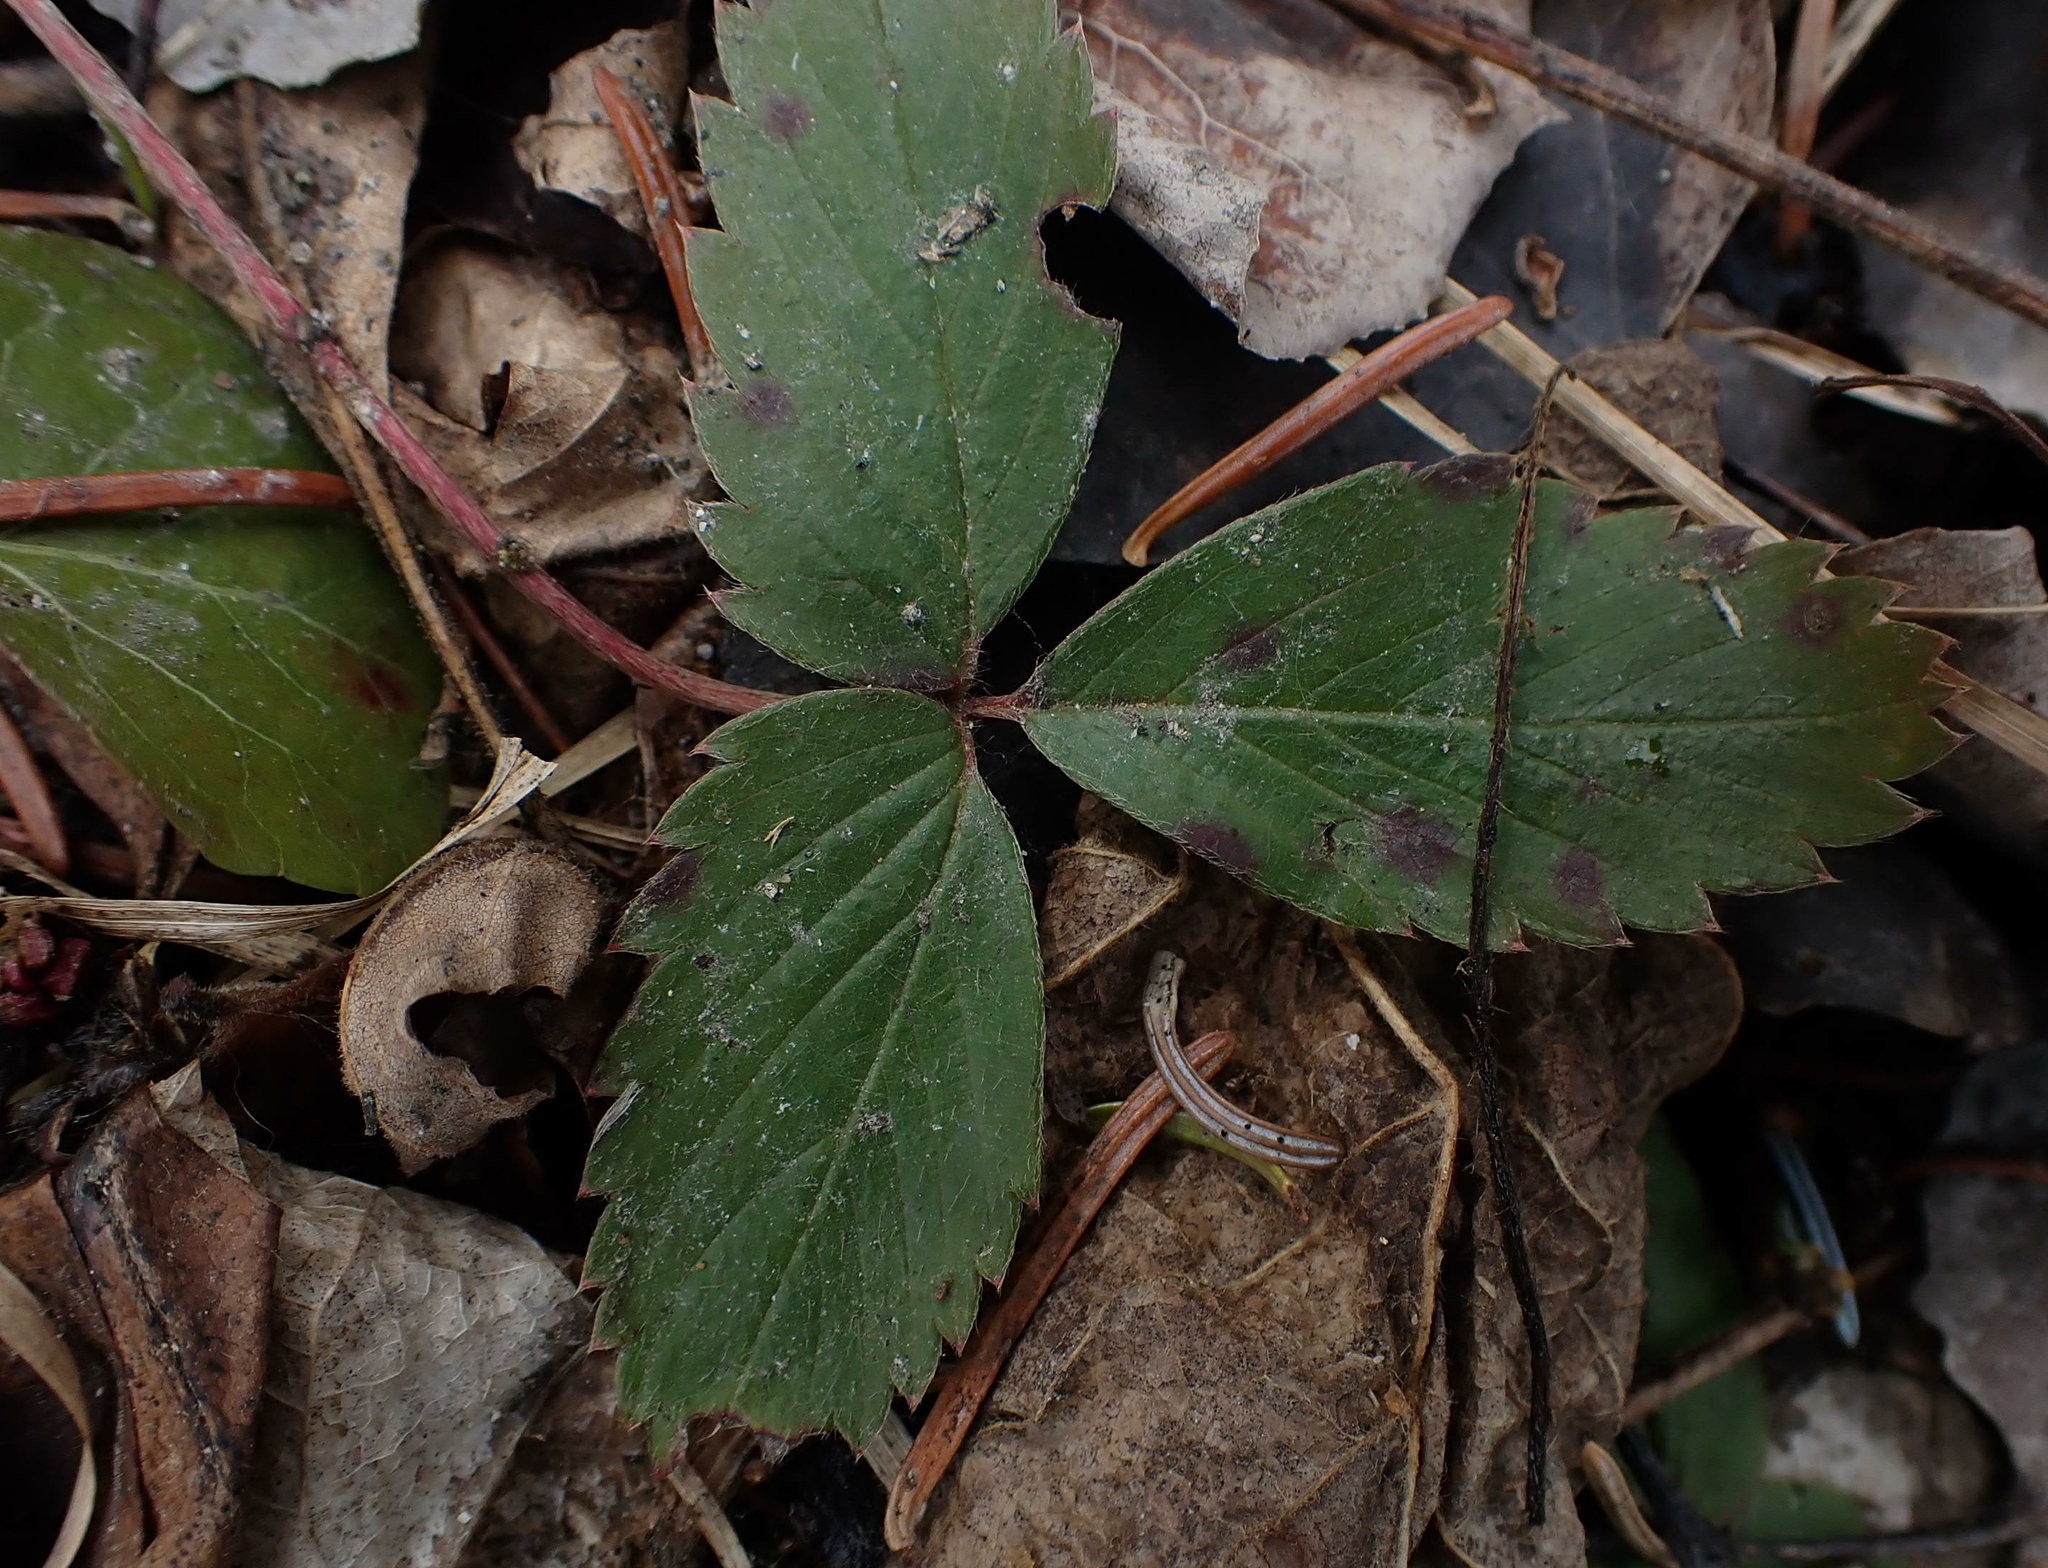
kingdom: Plantae
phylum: Tracheophyta
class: Magnoliopsida
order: Rosales
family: Rosaceae
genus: Fragaria
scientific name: Fragaria virginiana
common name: Thickleaved wild strawberry
